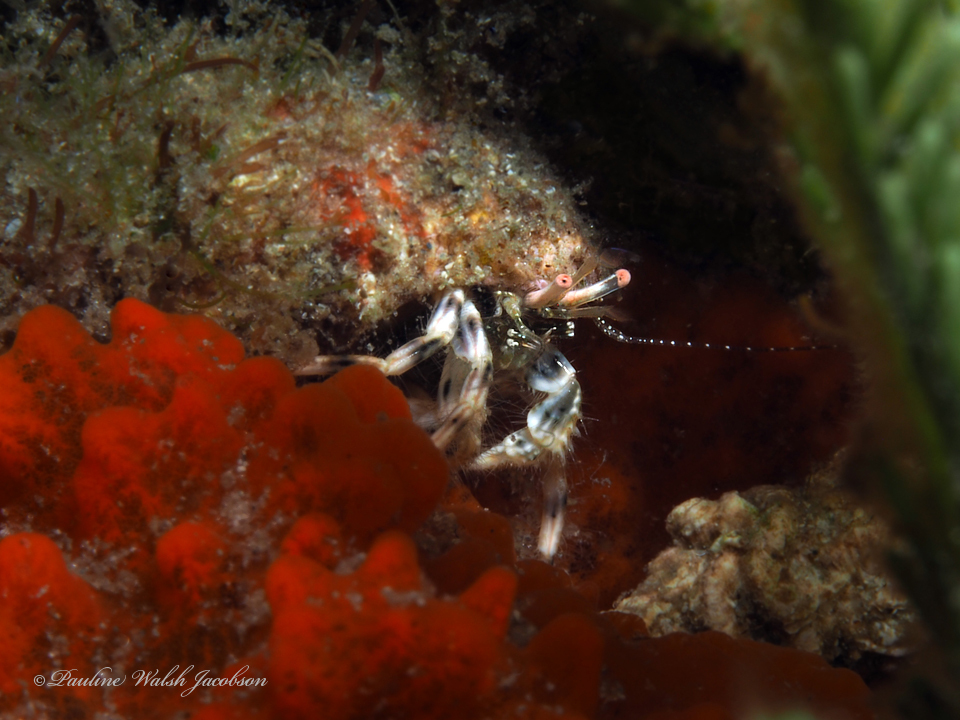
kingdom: Animalia
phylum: Arthropoda
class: Malacostraca
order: Decapoda
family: Paguridae
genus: Pagurus
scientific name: Pagurus brevidactylus
